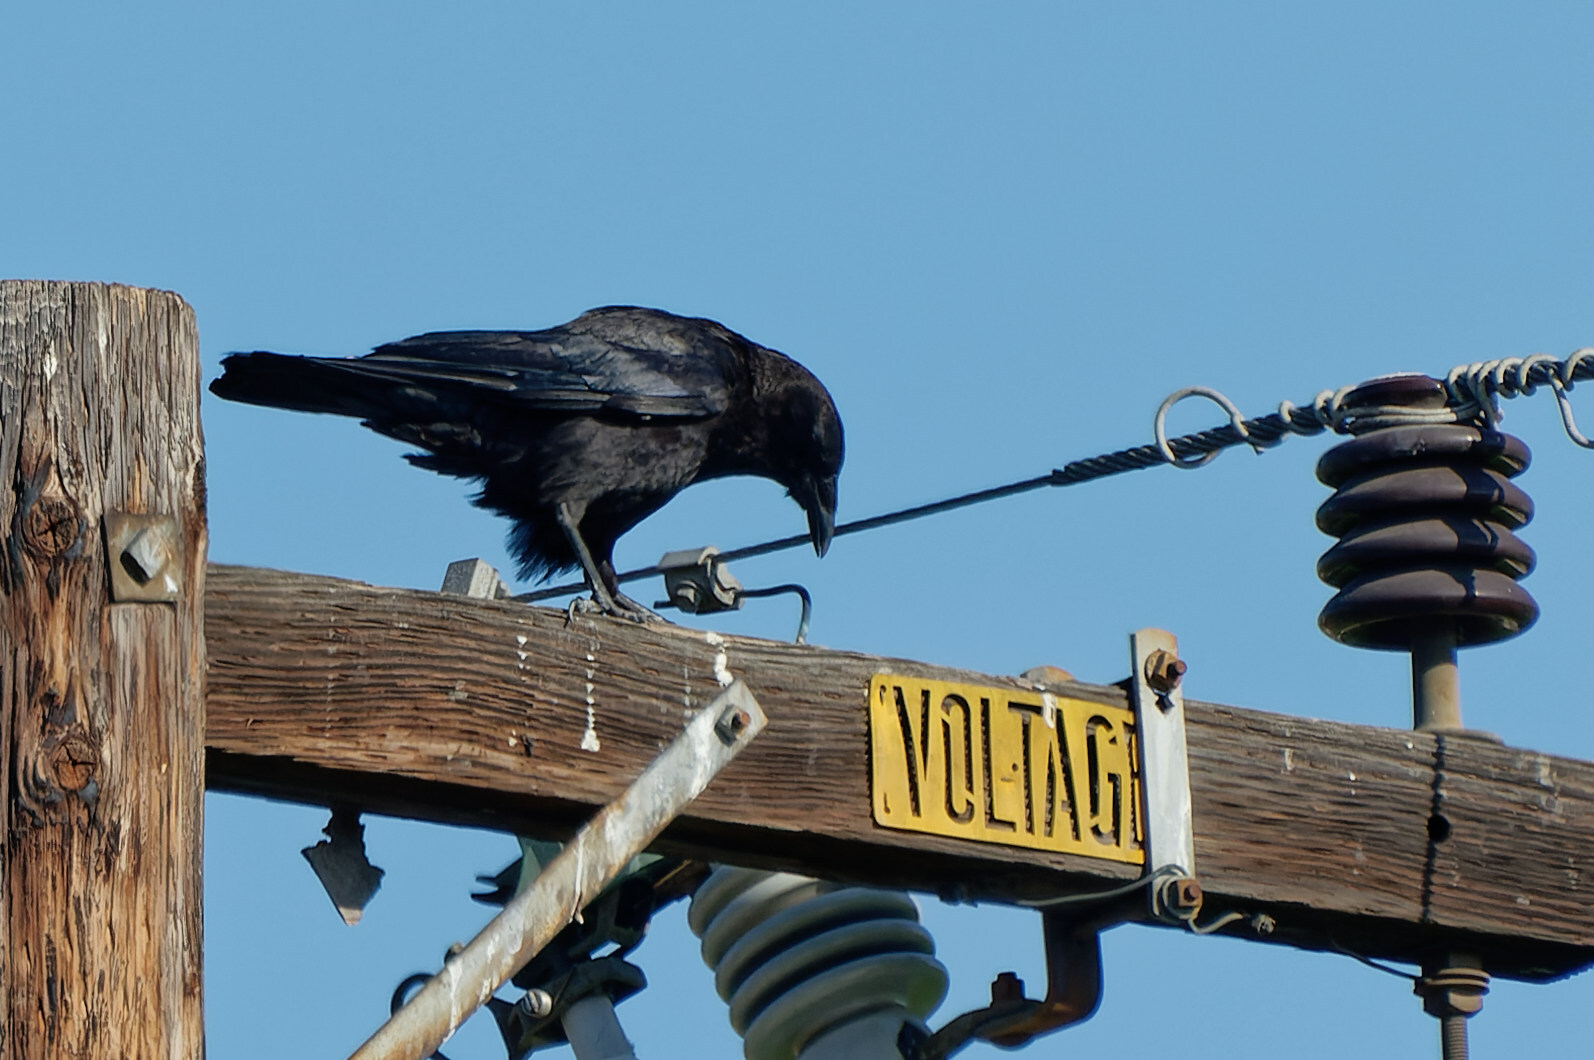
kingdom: Animalia
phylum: Chordata
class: Aves
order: Passeriformes
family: Corvidae
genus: Corvus
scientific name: Corvus brachyrhynchos
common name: American crow
